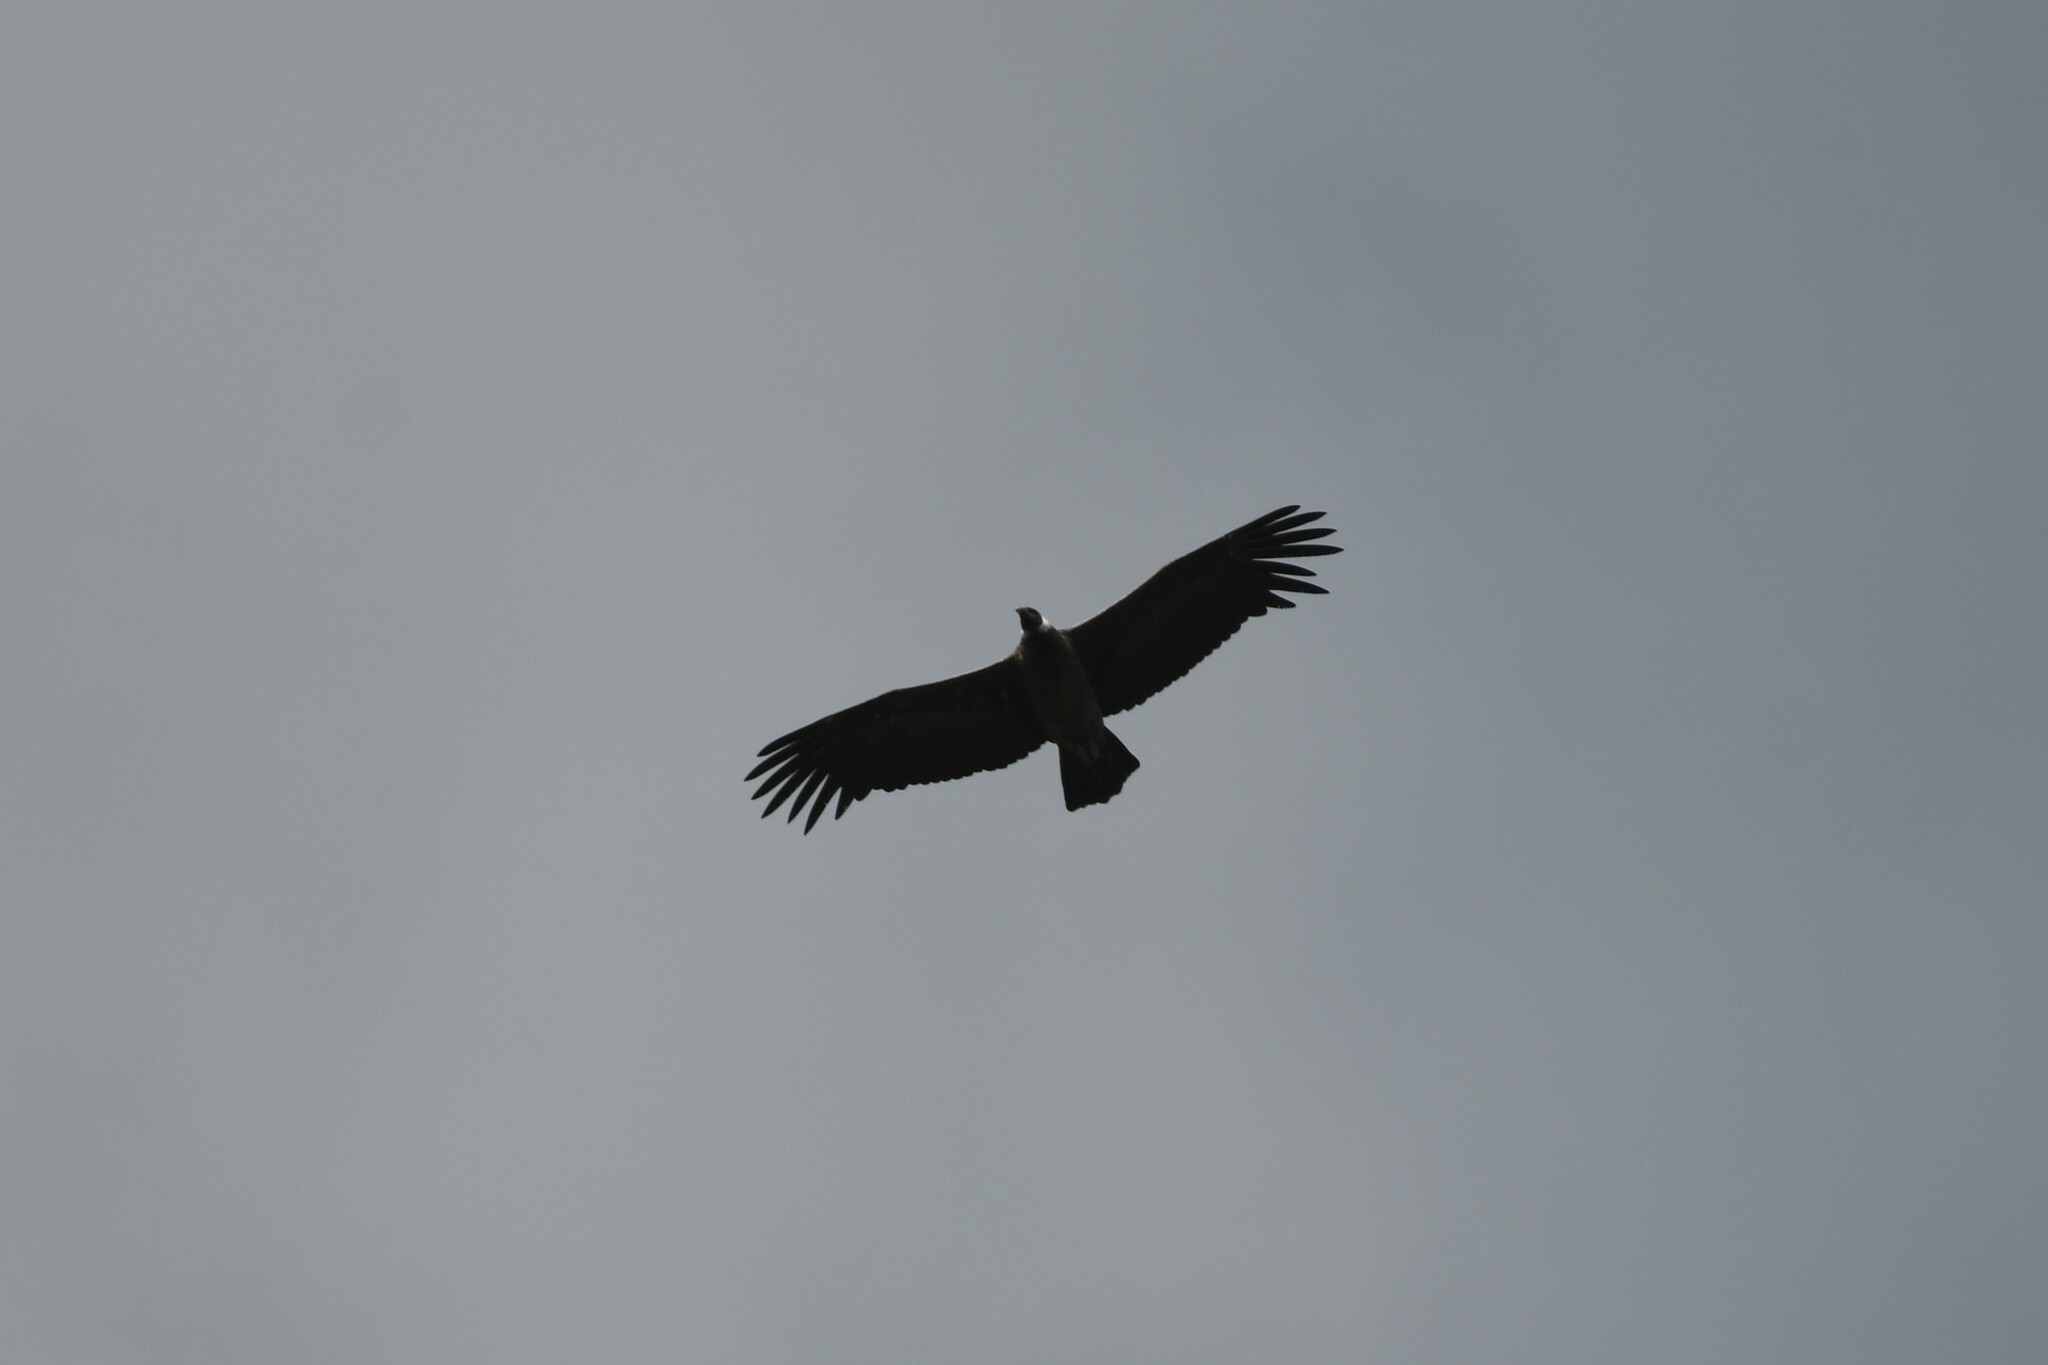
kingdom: Animalia
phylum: Chordata
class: Aves
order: Accipitriformes
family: Cathartidae
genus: Vultur
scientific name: Vultur gryphus
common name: Andean condor
